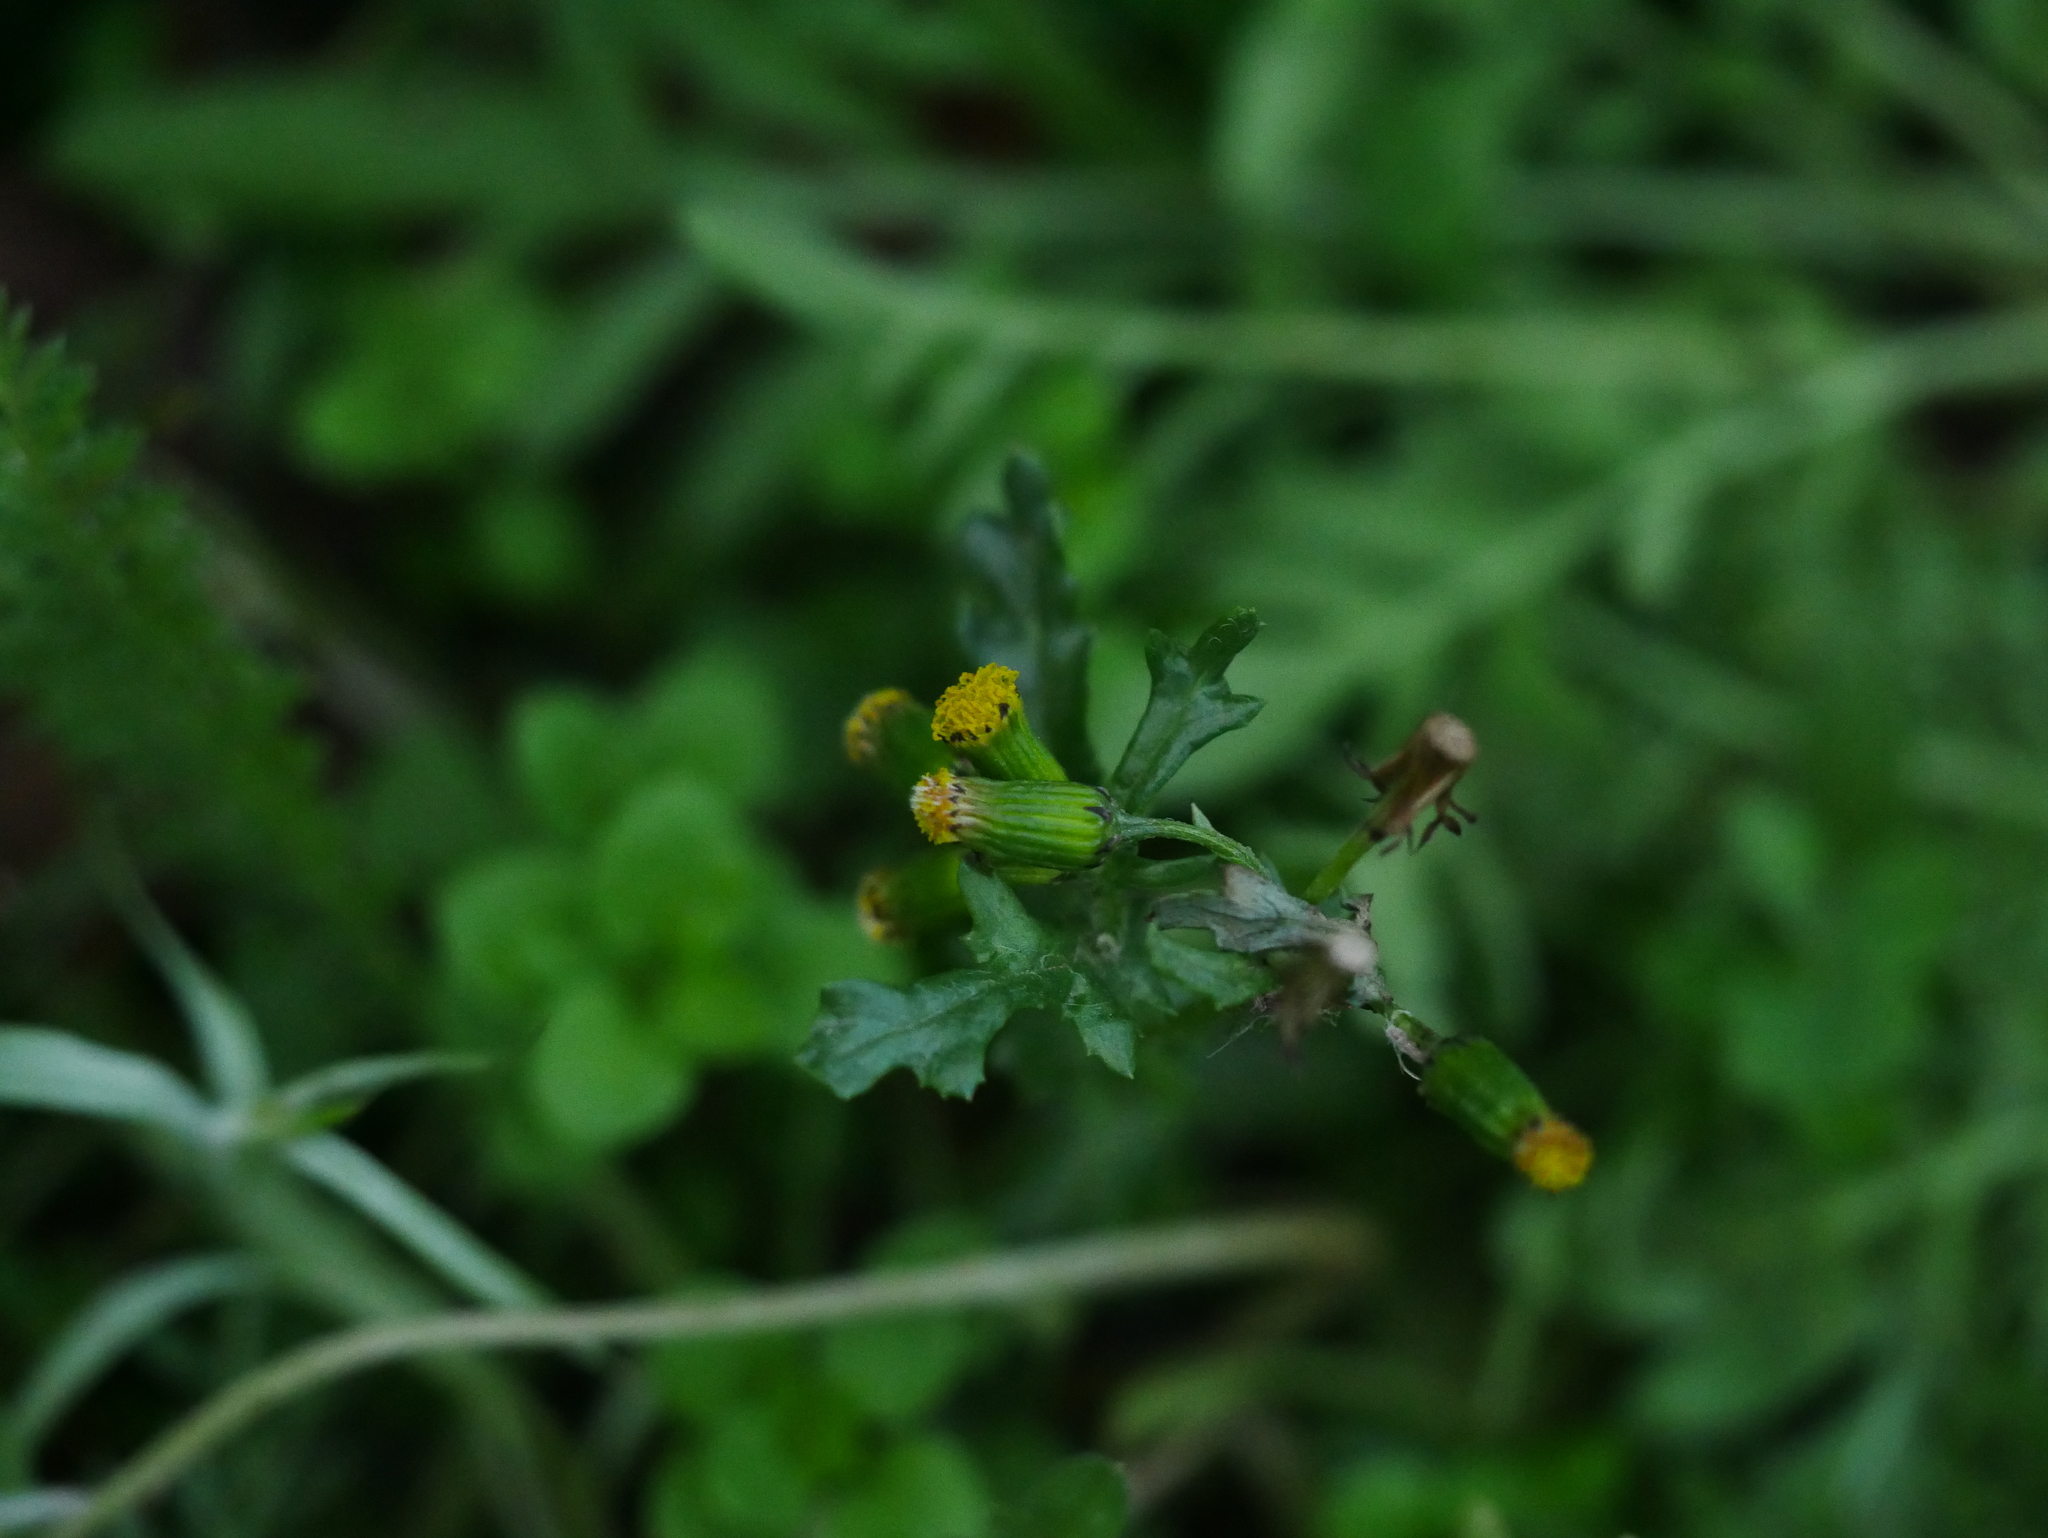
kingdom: Plantae
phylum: Tracheophyta
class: Magnoliopsida
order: Asterales
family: Asteraceae
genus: Senecio
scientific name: Senecio vulgaris
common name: Old-man-in-the-spring
